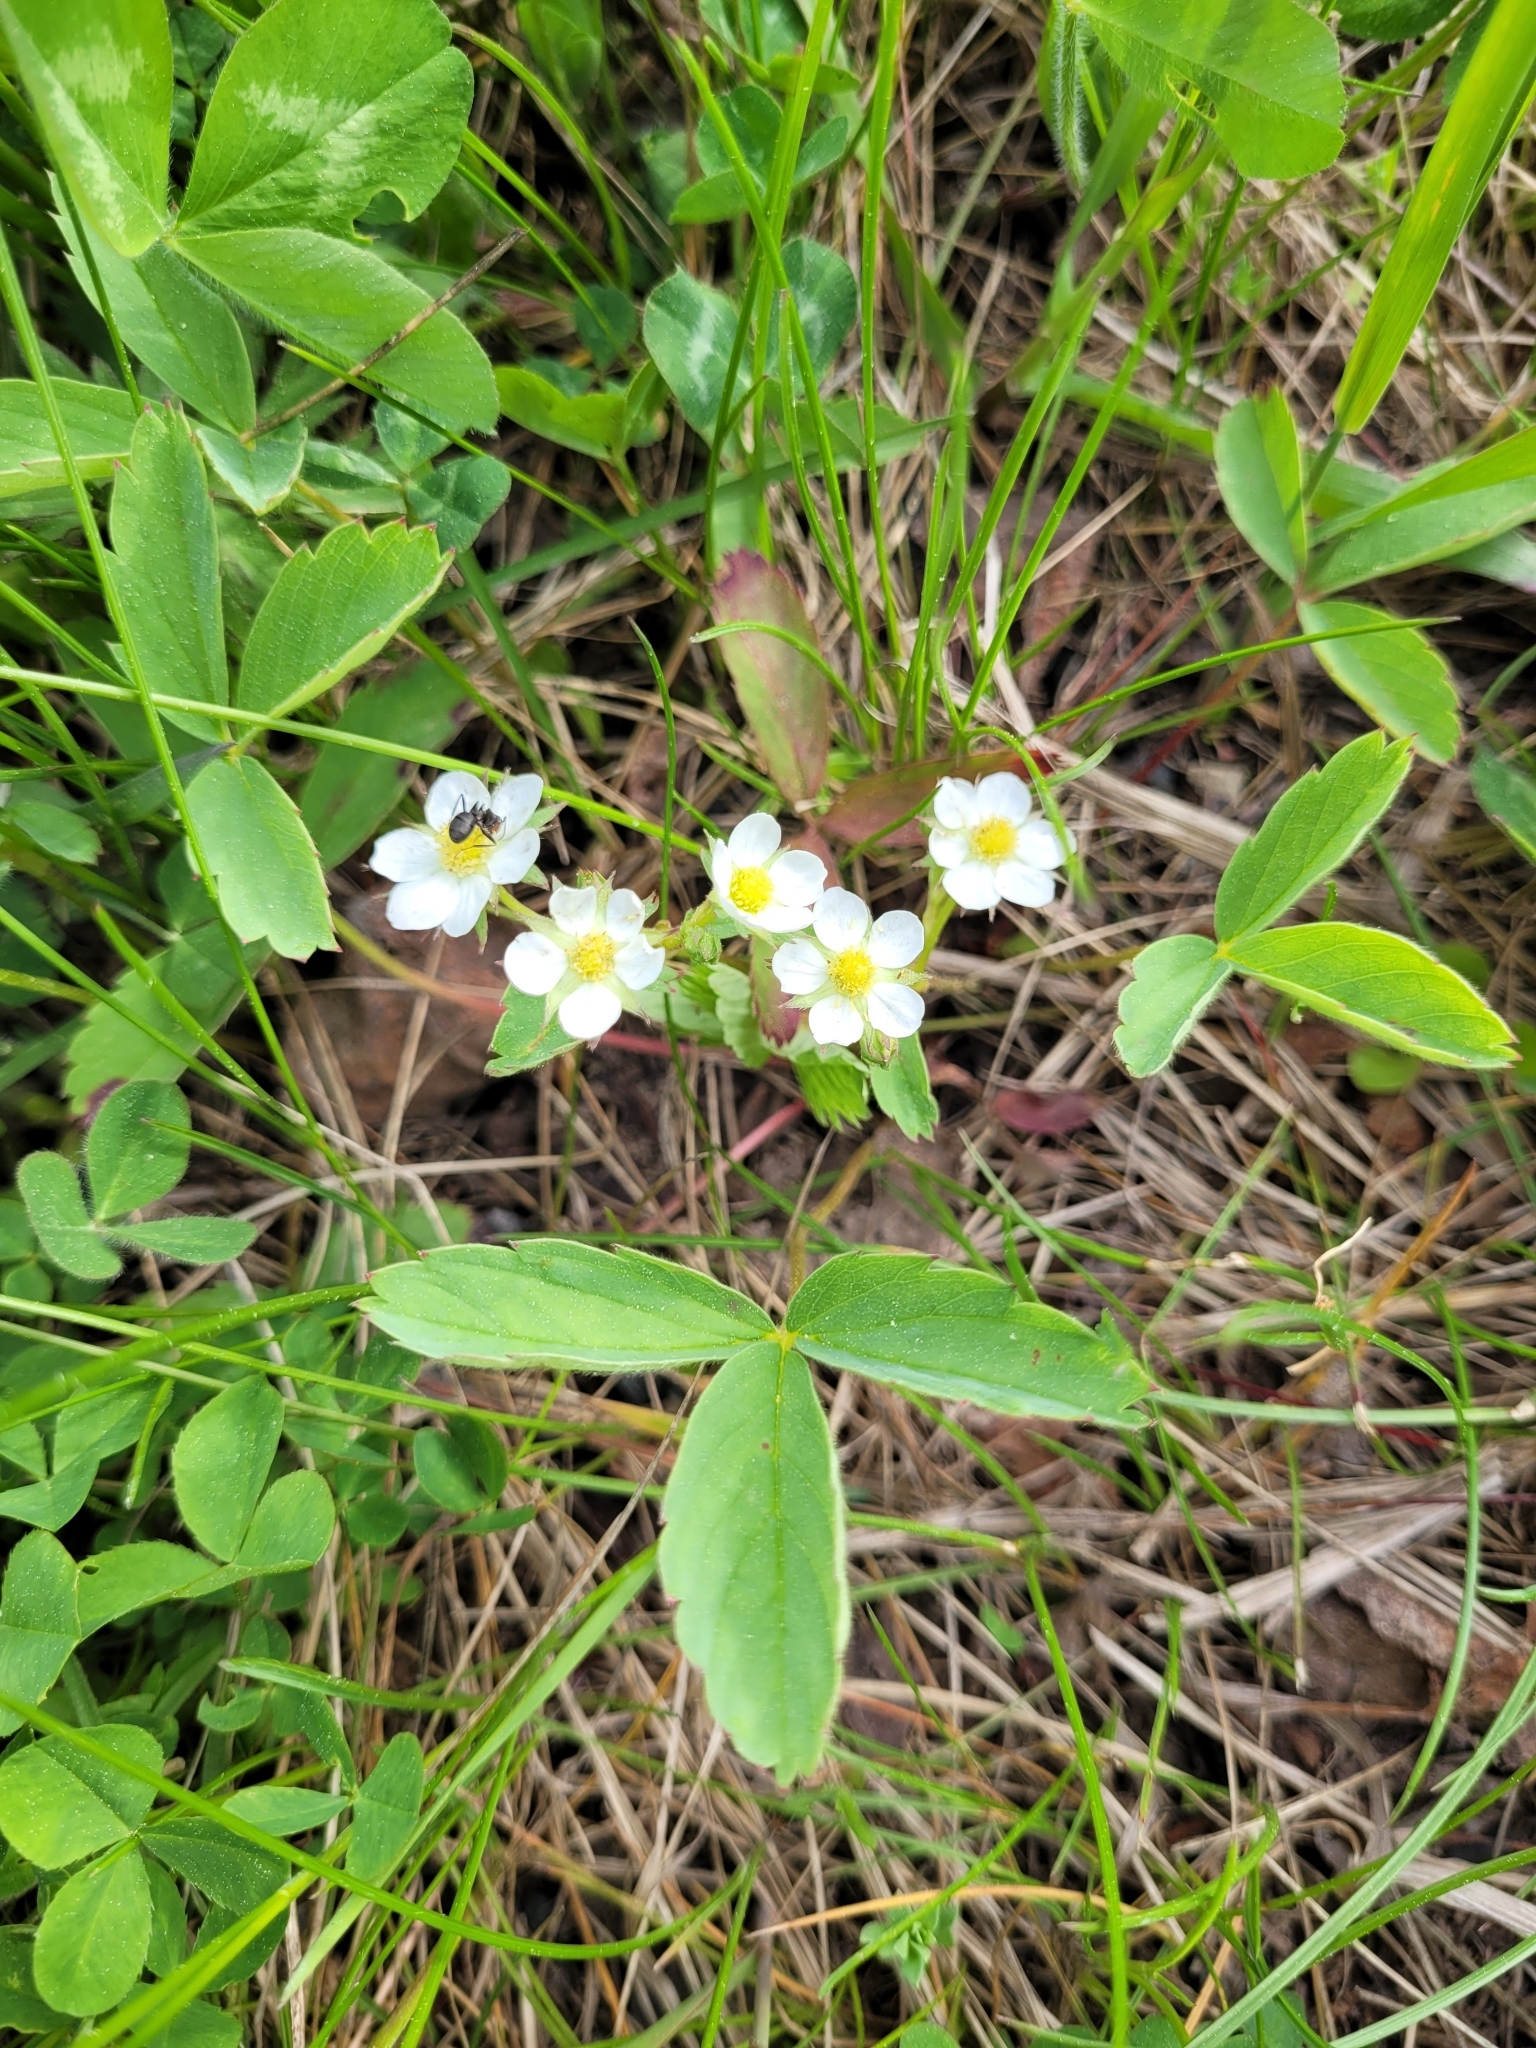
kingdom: Plantae
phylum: Tracheophyta
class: Magnoliopsida
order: Rosales
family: Rosaceae
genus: Fragaria
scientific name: Fragaria virginiana
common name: Thickleaved wild strawberry
